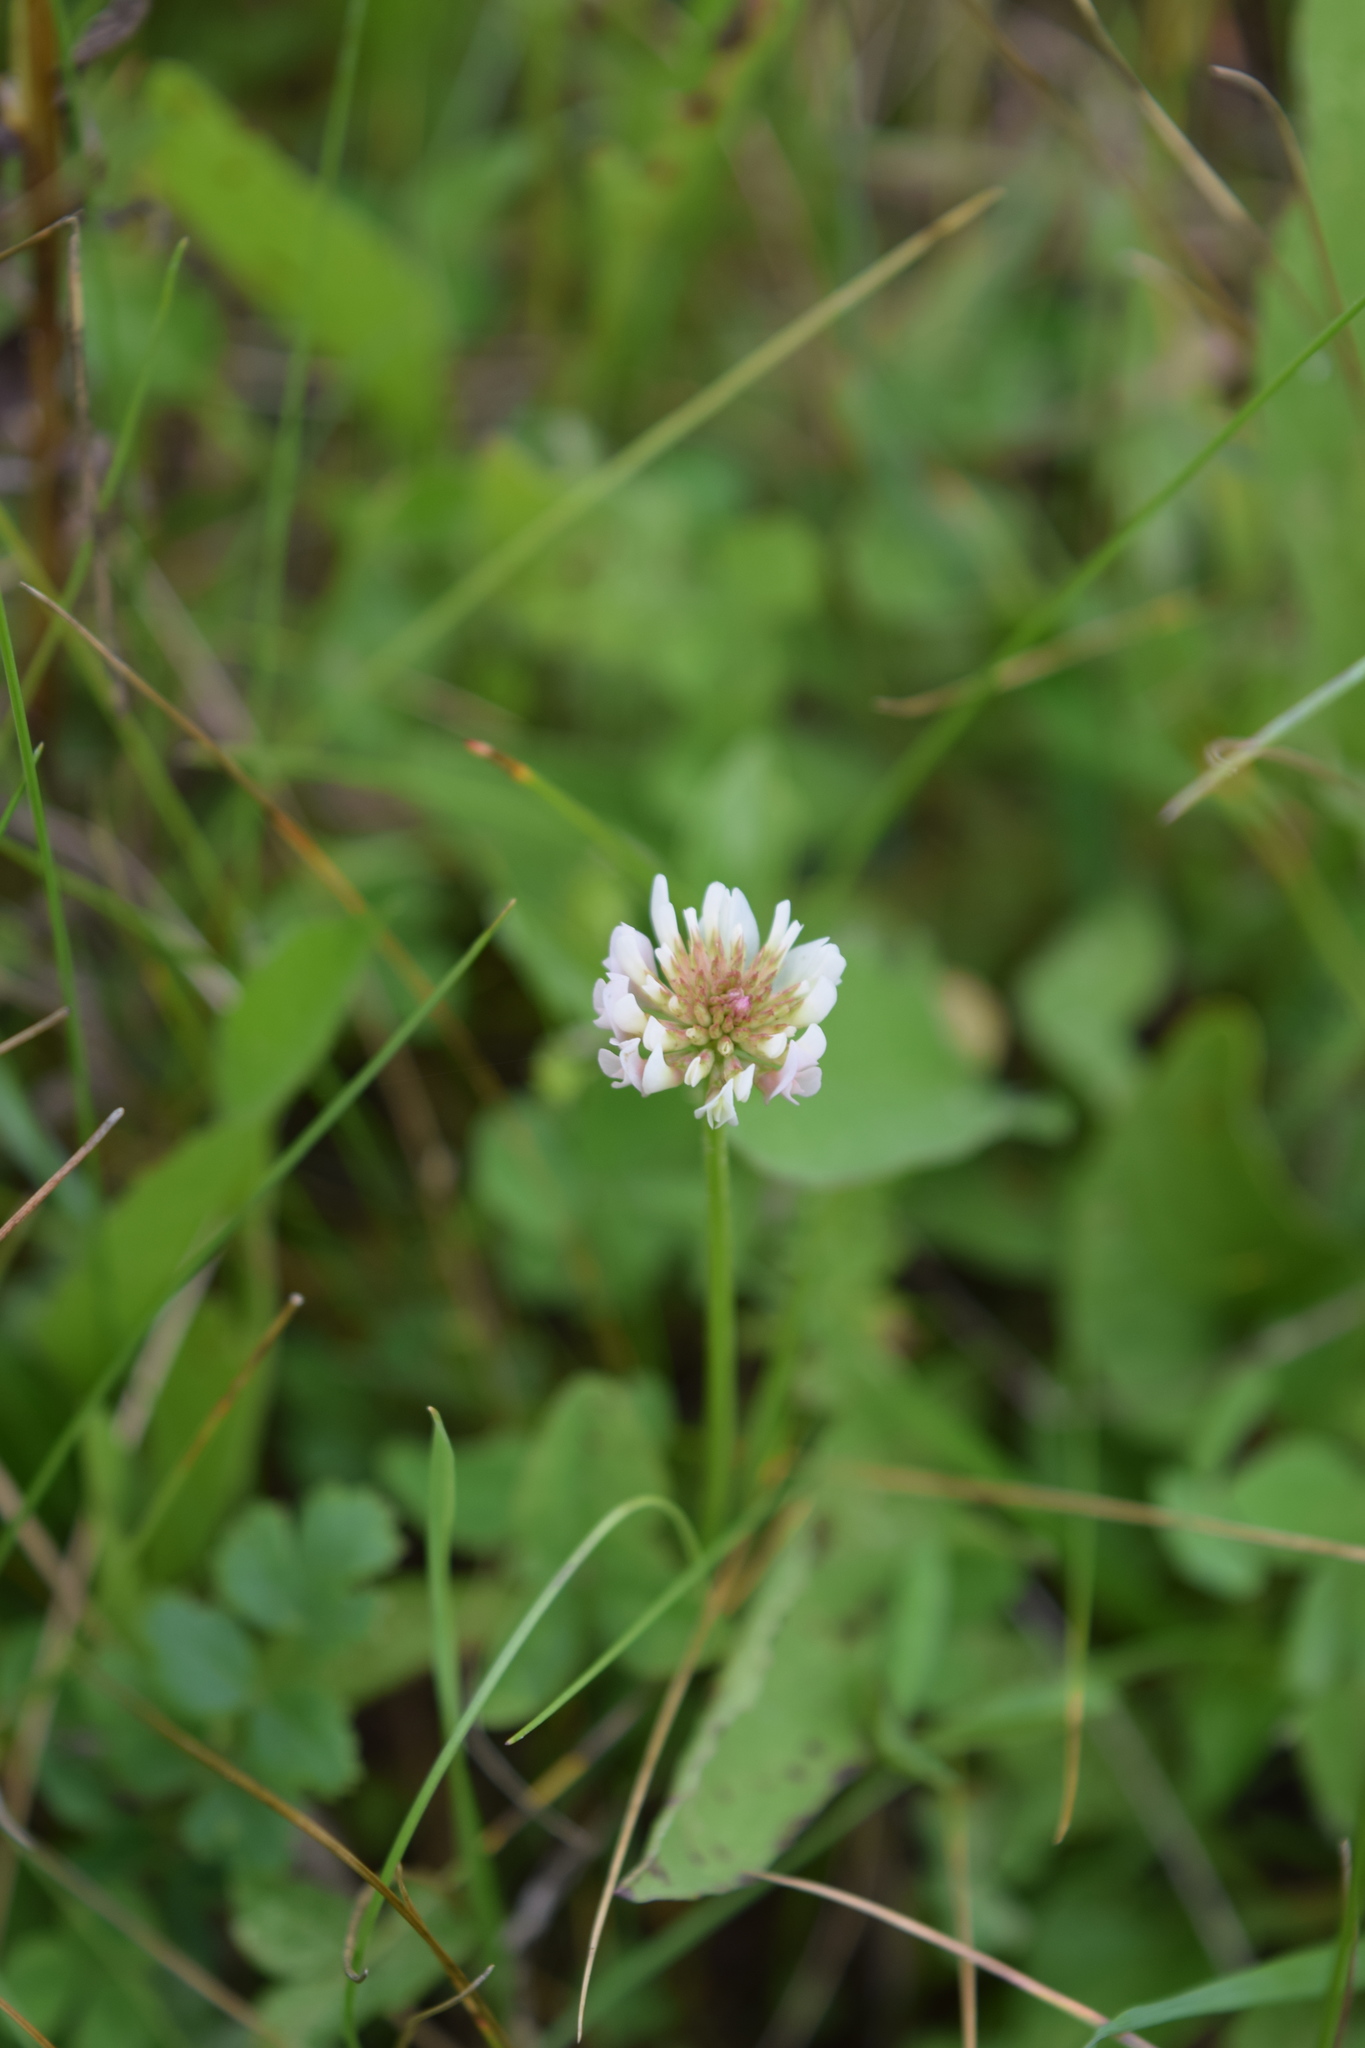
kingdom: Plantae
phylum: Tracheophyta
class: Magnoliopsida
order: Fabales
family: Fabaceae
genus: Trifolium
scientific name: Trifolium repens
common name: White clover
